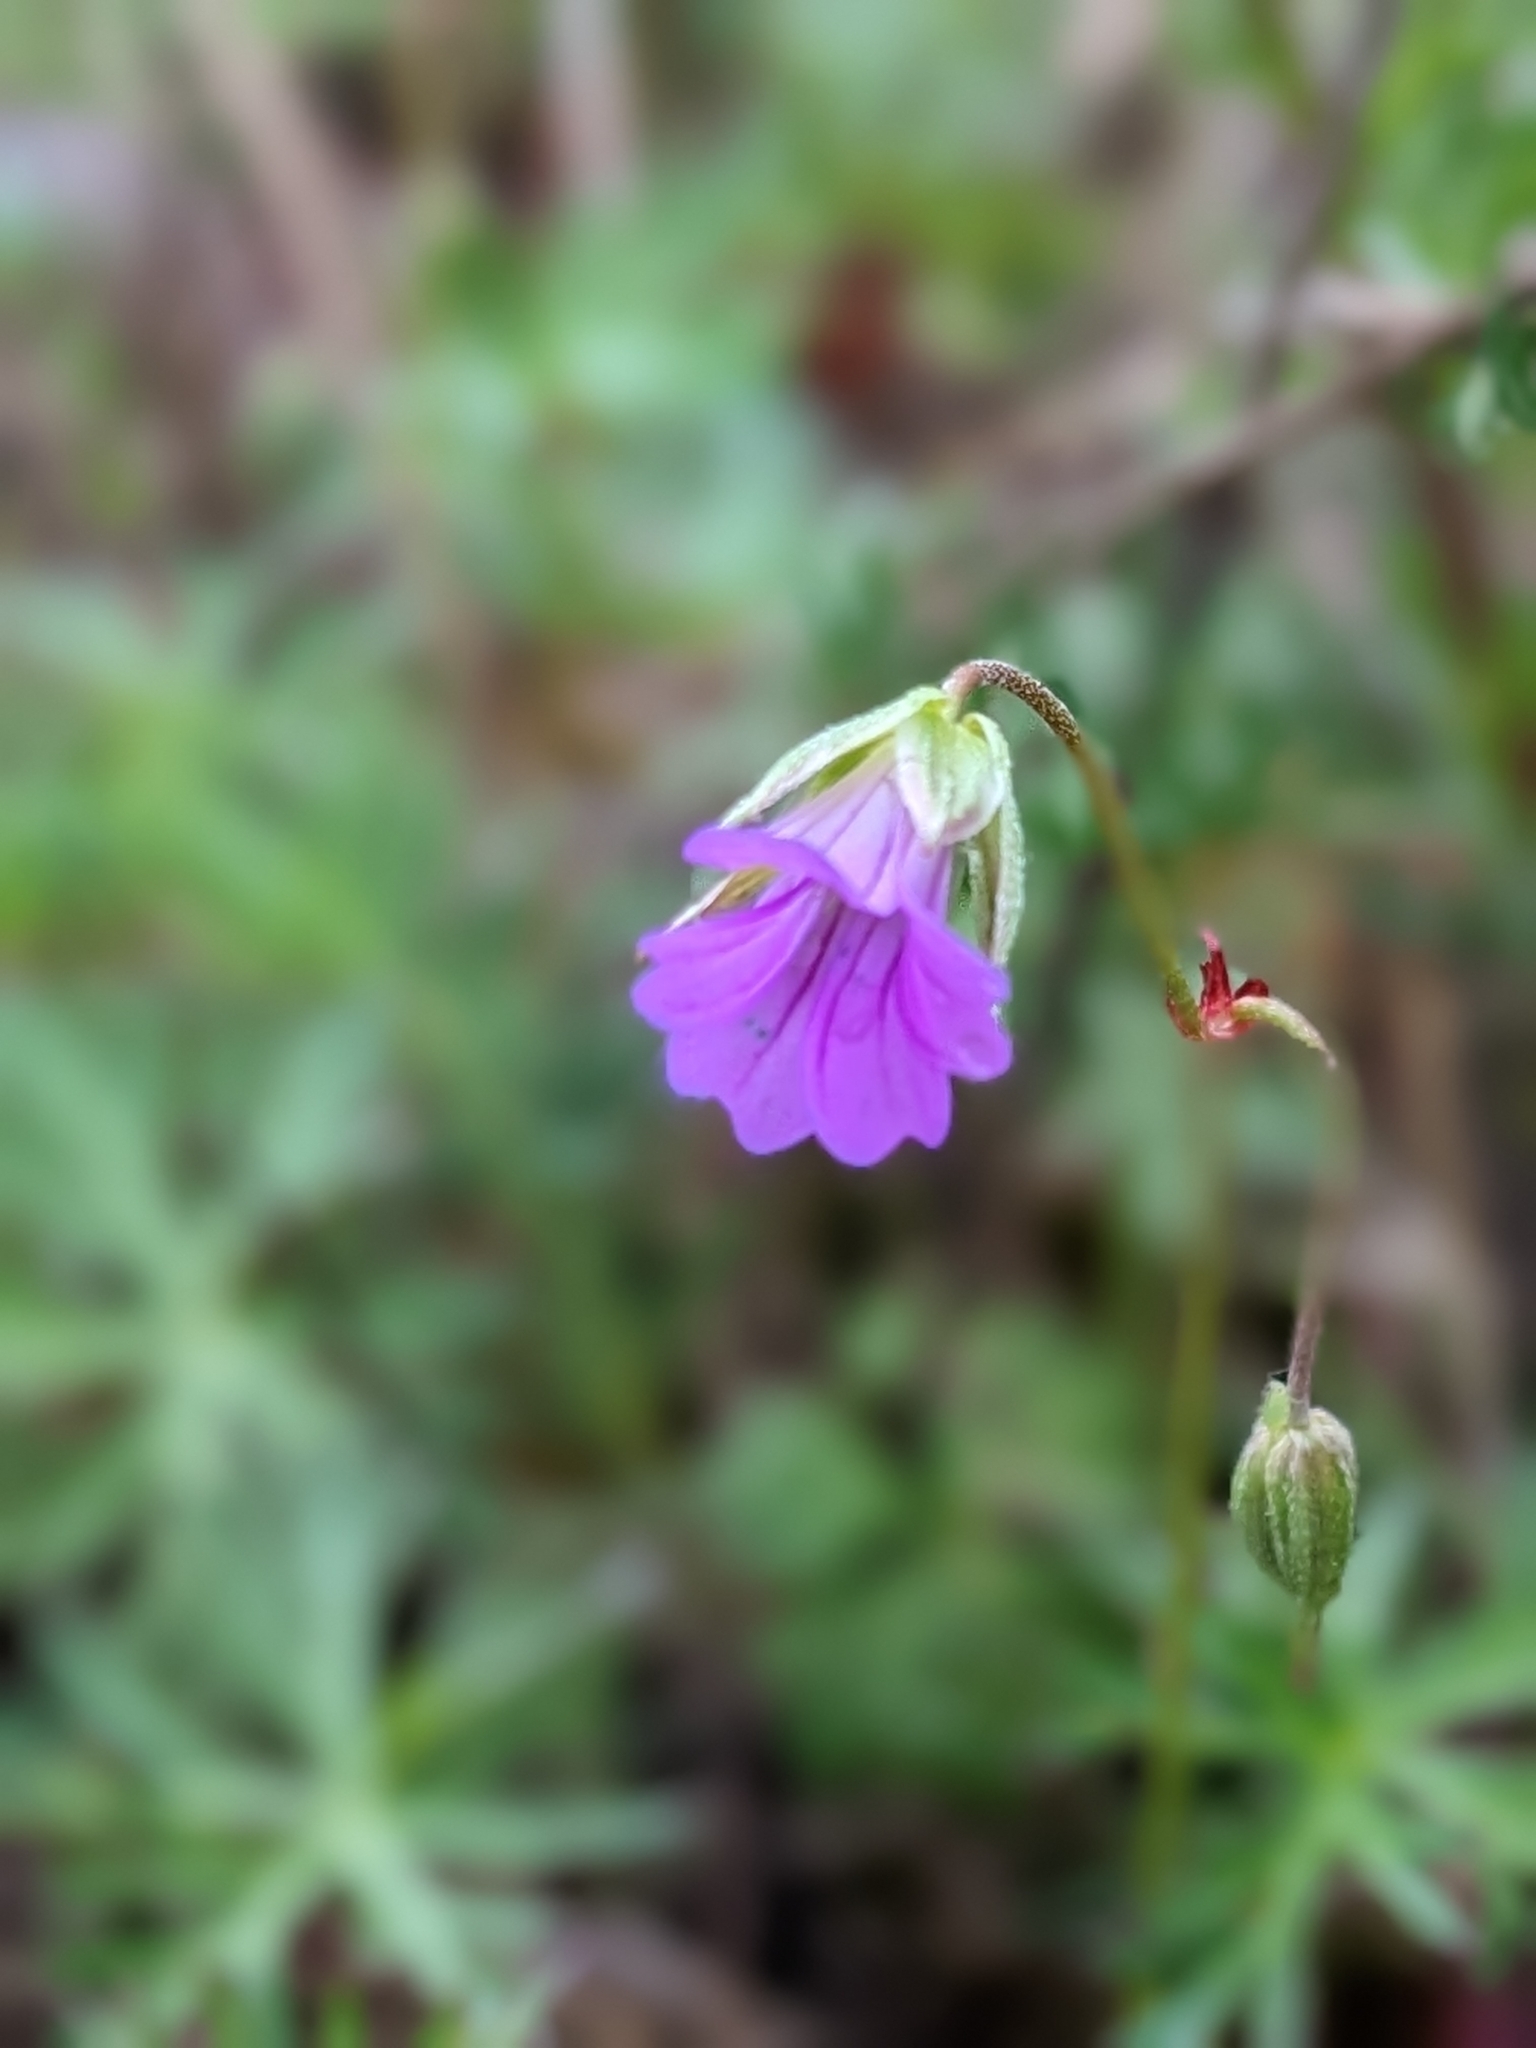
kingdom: Plantae
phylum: Tracheophyta
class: Magnoliopsida
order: Geraniales
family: Geraniaceae
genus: Geranium
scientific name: Geranium columbinum
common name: Long-stalked crane's-bill
